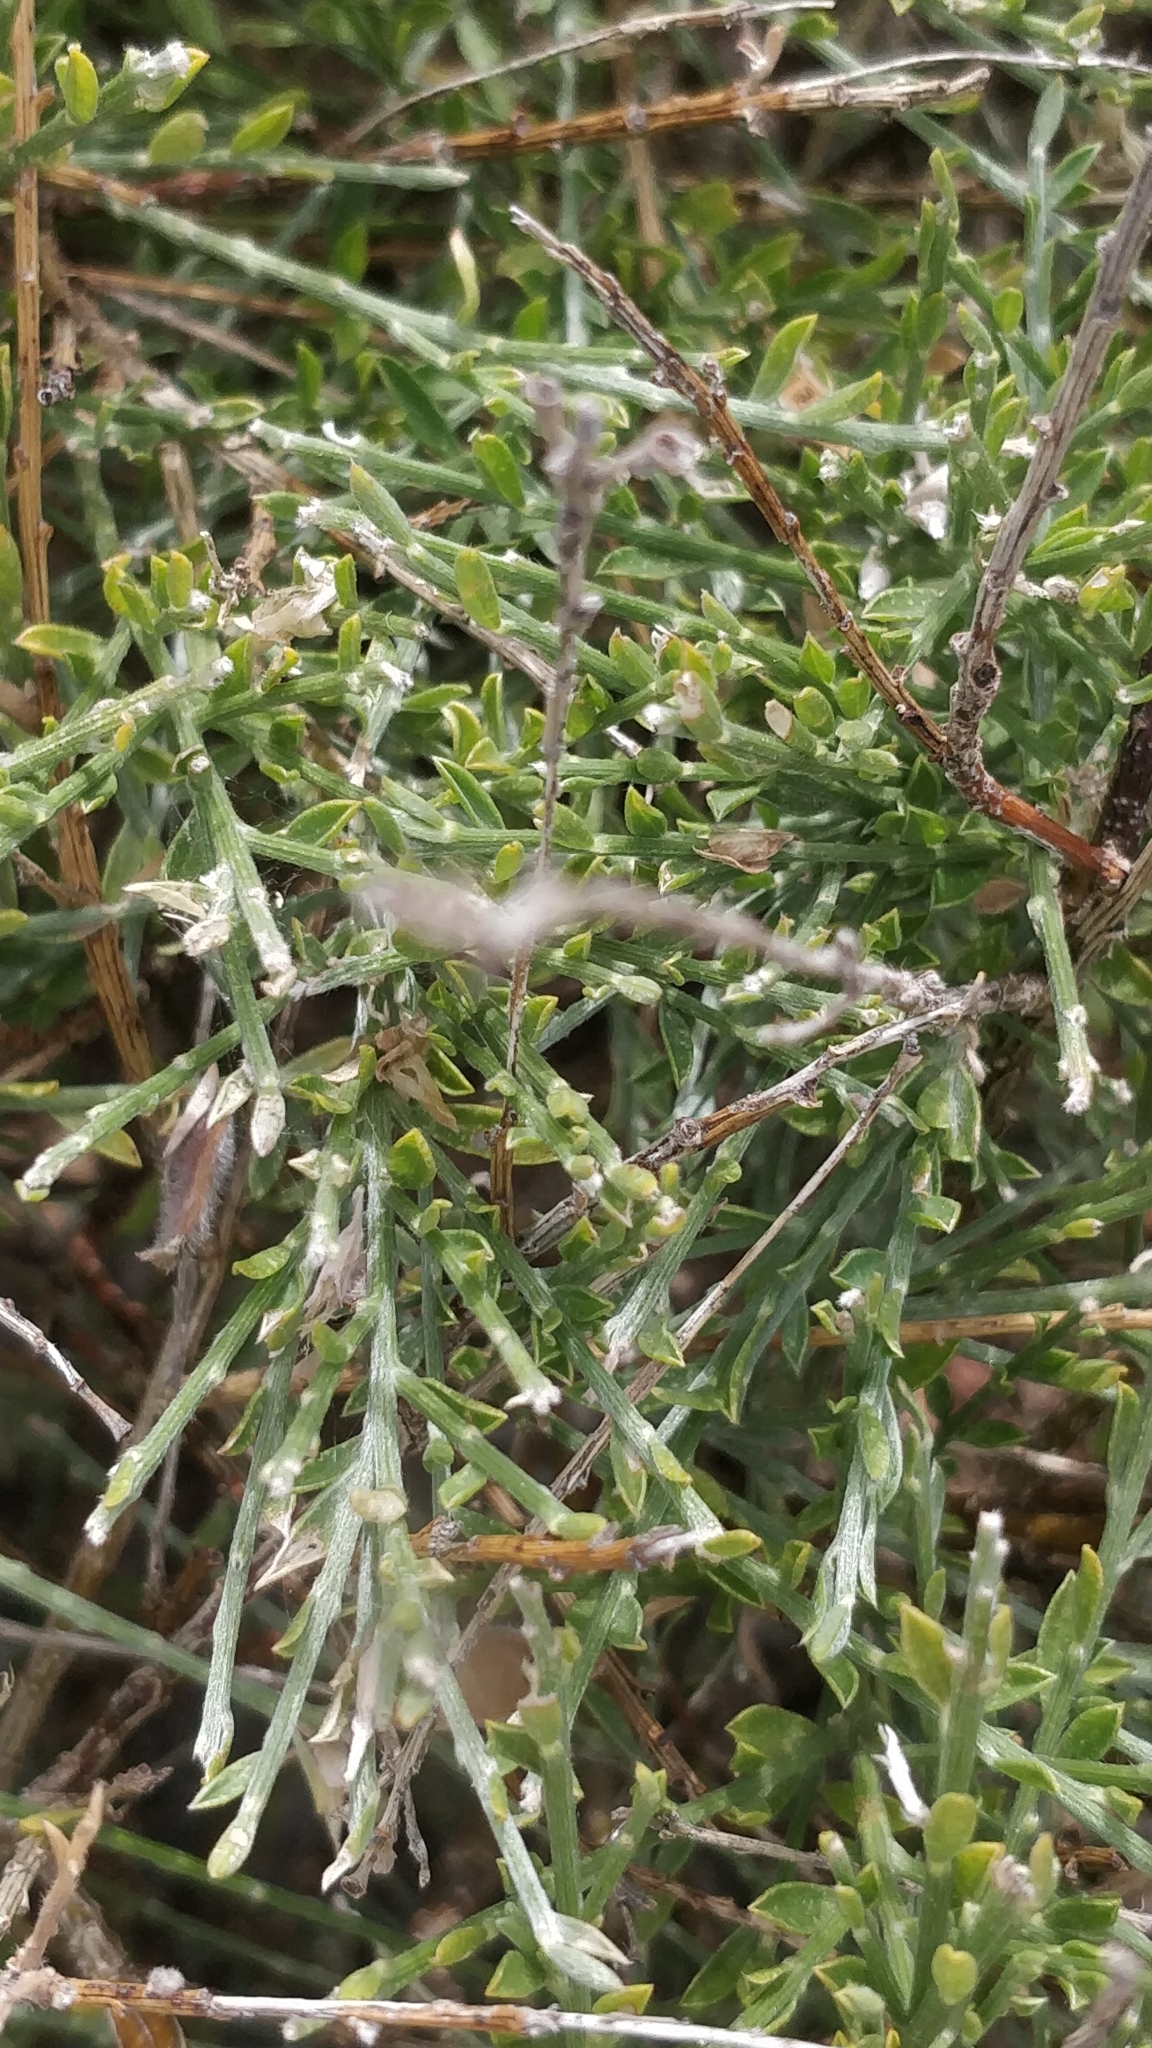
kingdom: Plantae
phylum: Tracheophyta
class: Magnoliopsida
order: Fabales
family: Fabaceae
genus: Genista
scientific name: Genista tenera
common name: Madeira broom
